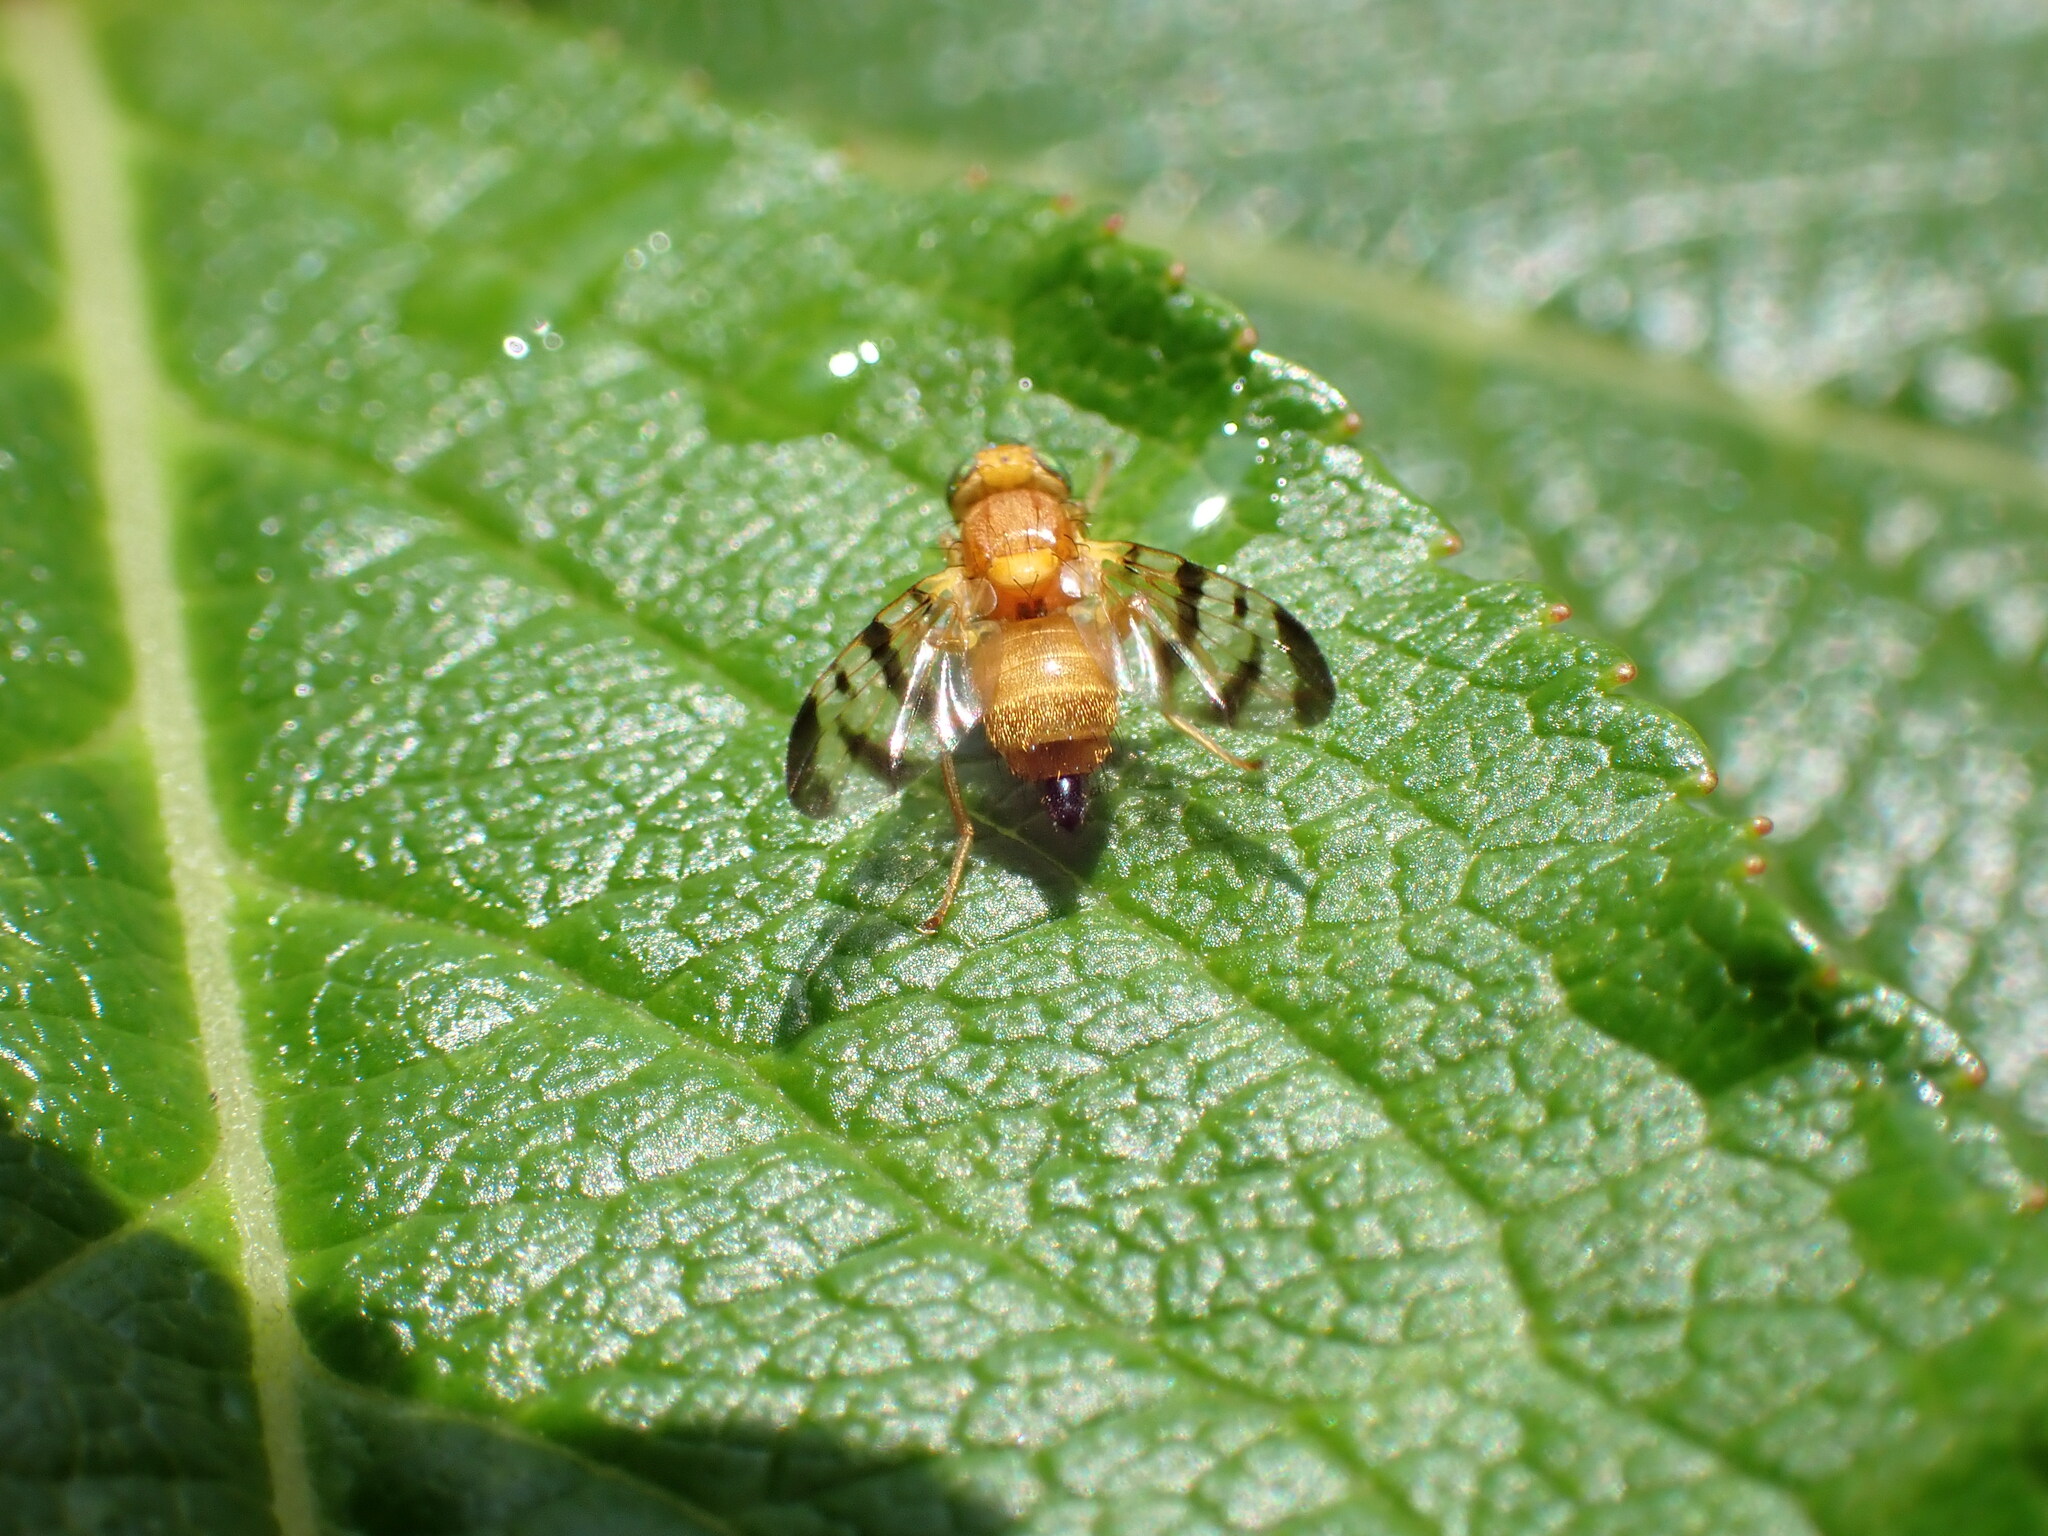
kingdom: Animalia
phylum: Arthropoda
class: Insecta
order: Diptera
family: Tephritidae
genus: Rhagoletis
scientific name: Rhagoletis meigenii
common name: Fruit fly
